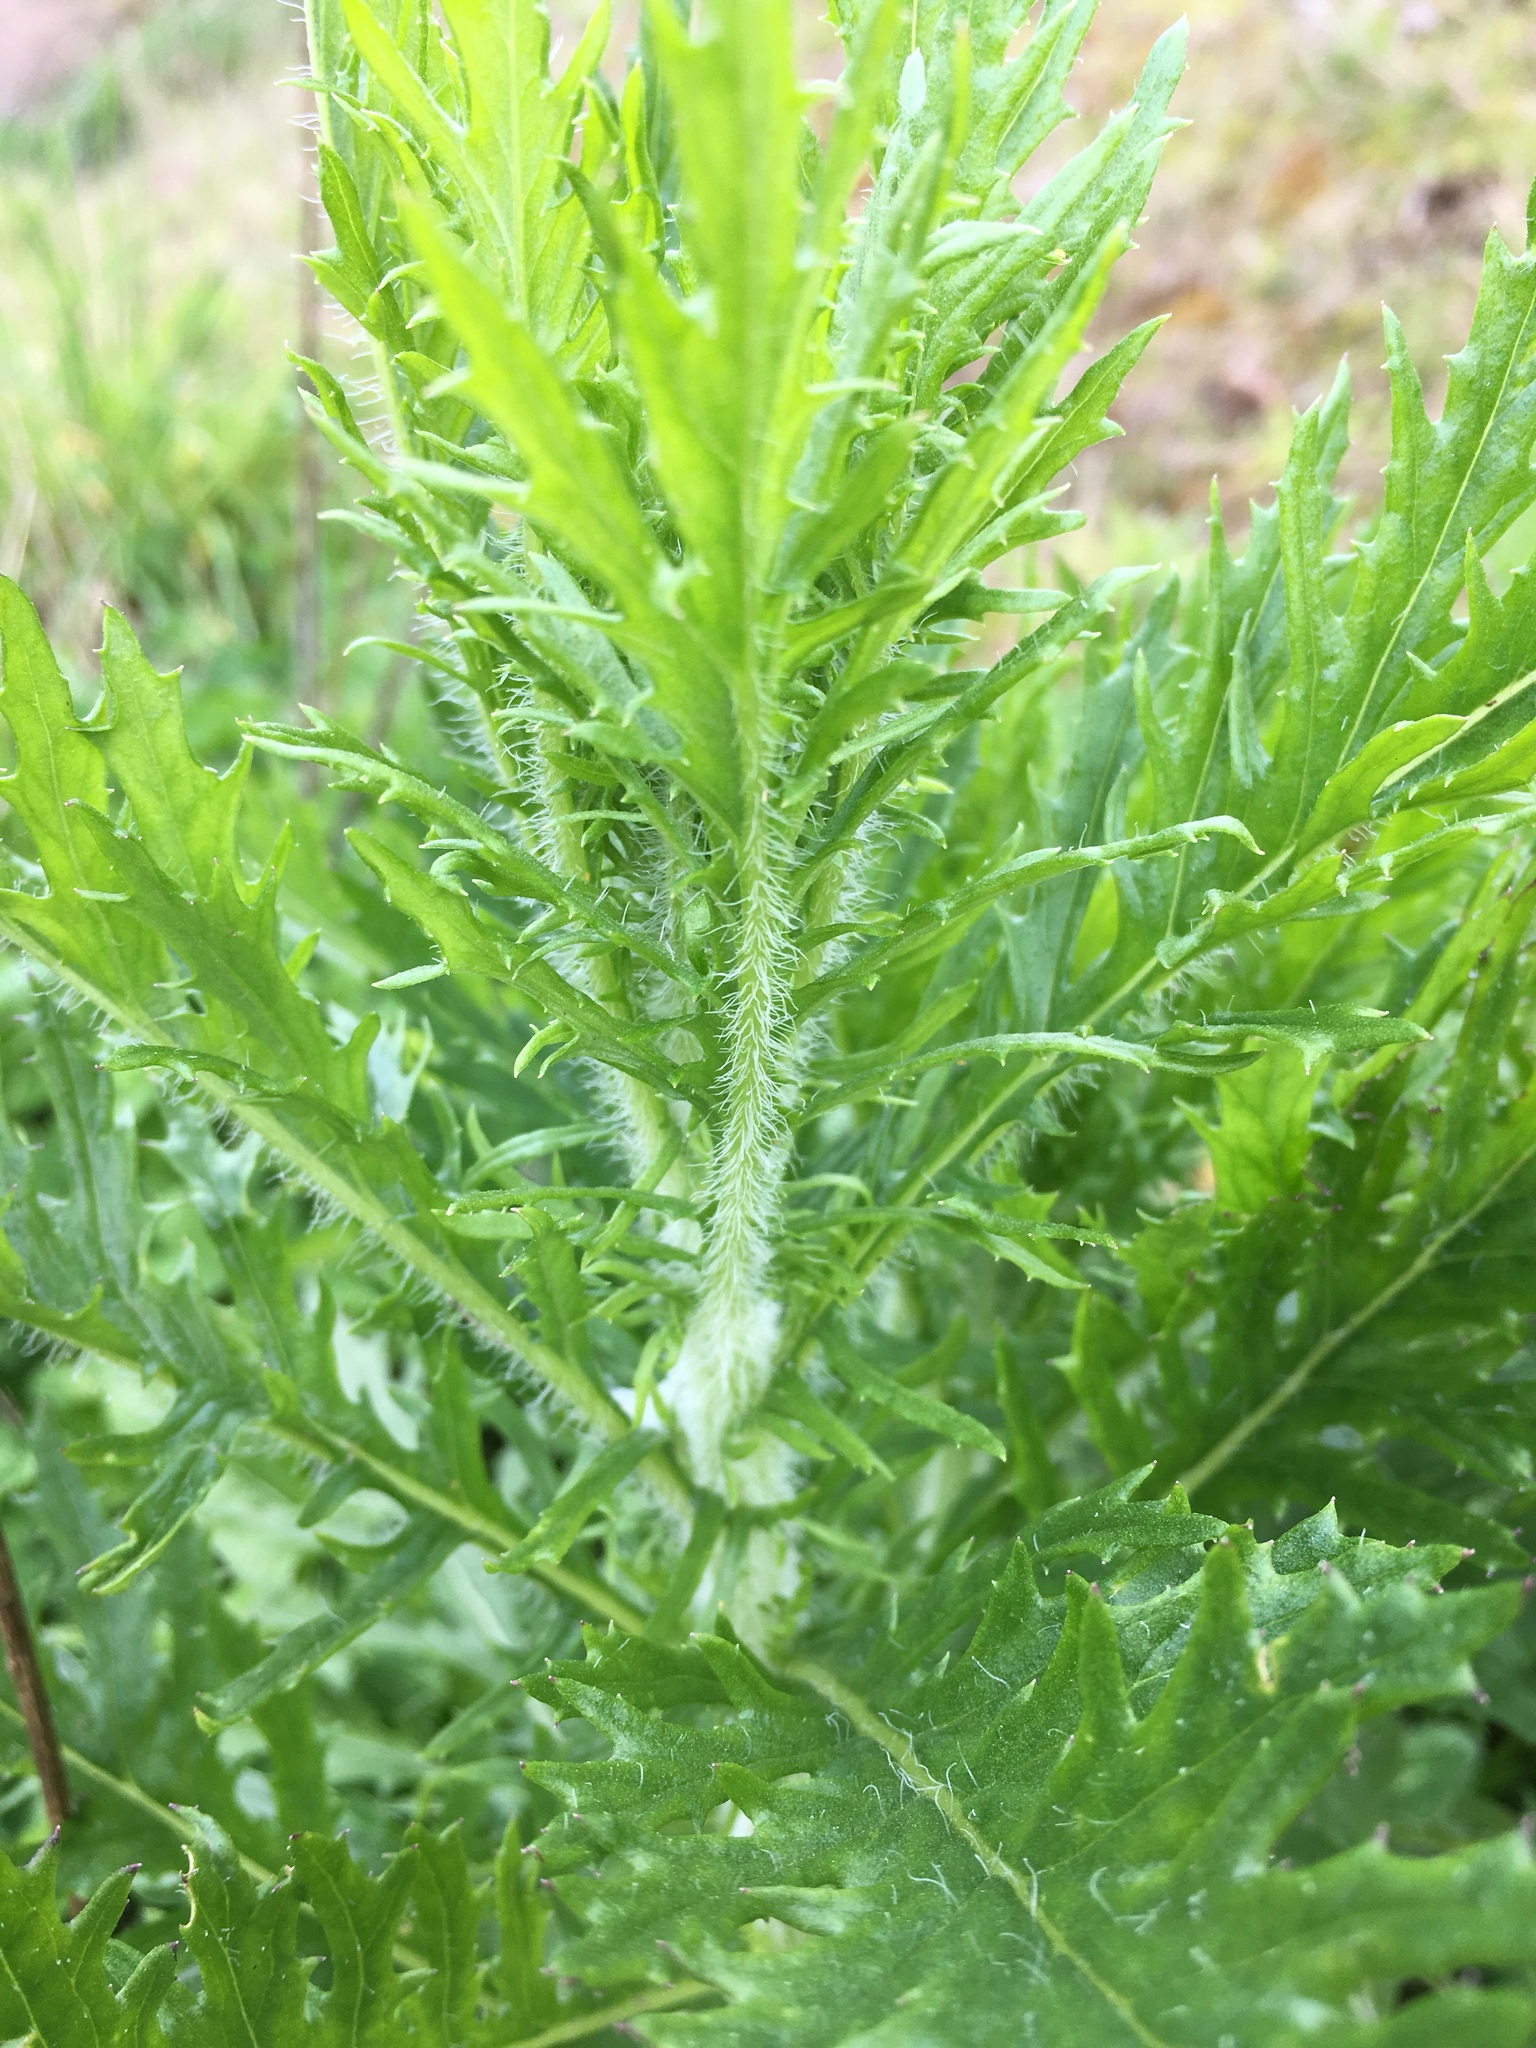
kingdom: Plantae
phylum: Tracheophyta
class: Magnoliopsida
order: Asterales
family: Asteraceae
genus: Senecio
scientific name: Senecio esleri
